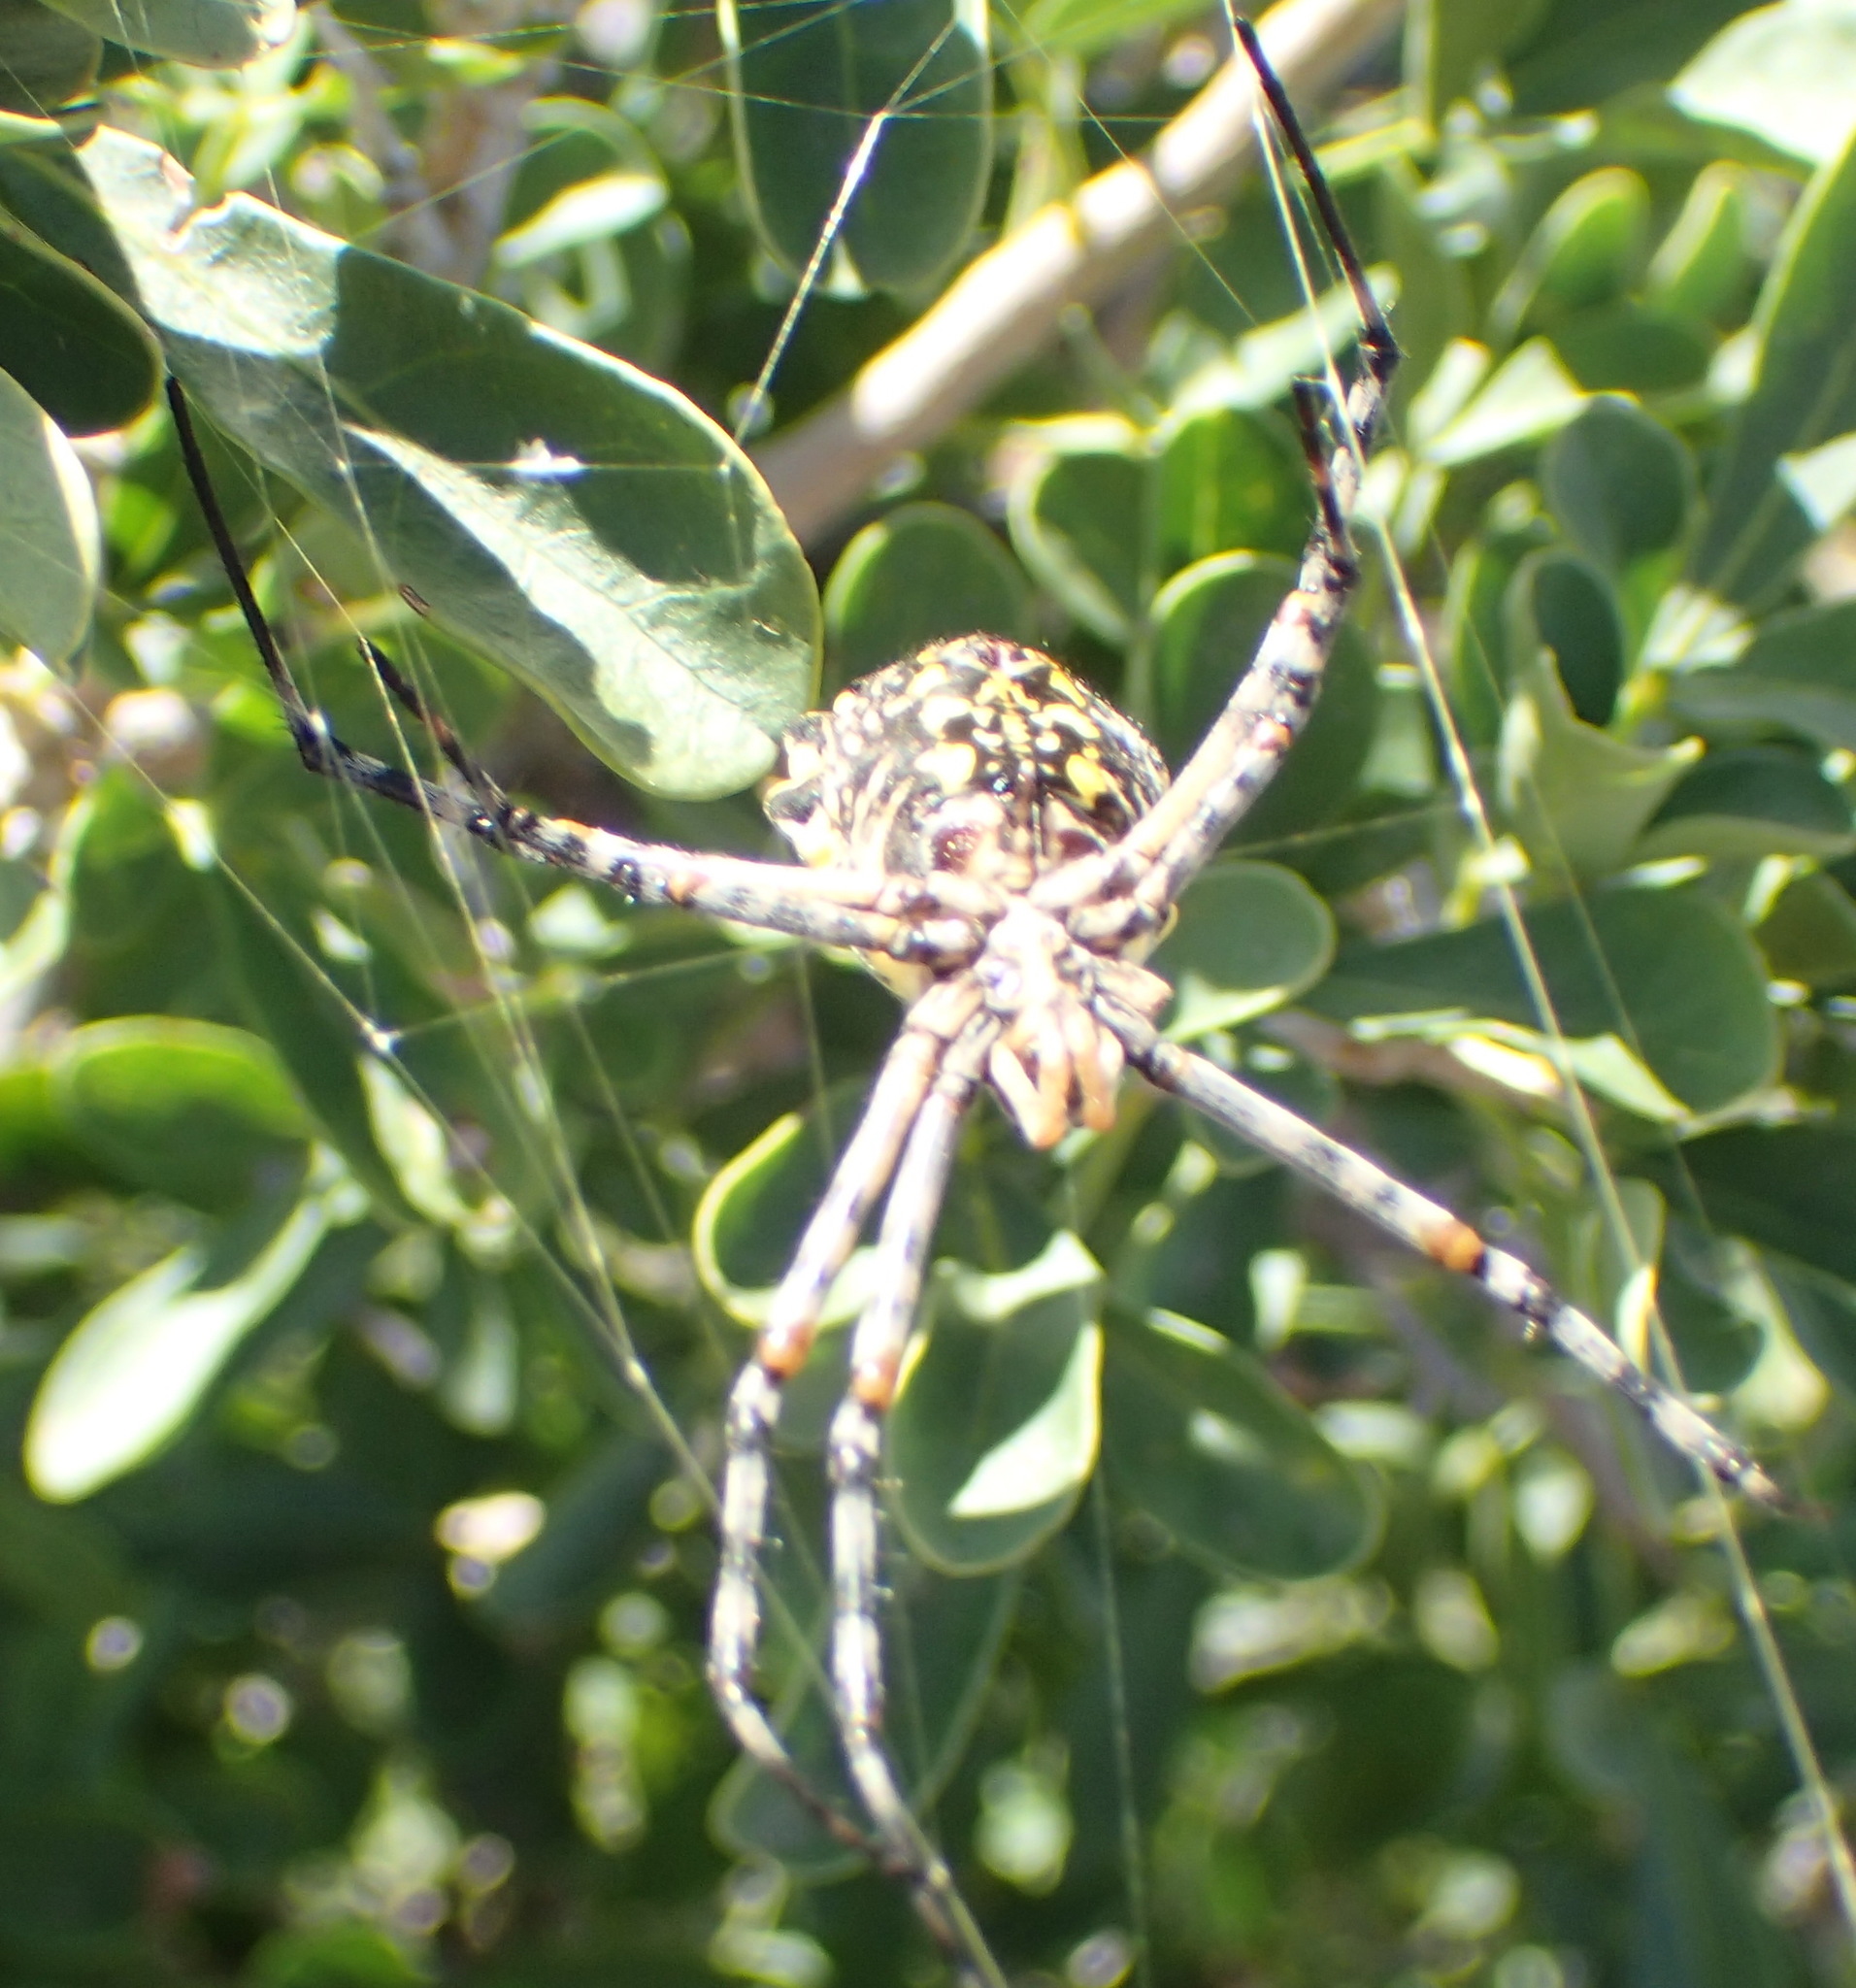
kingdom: Animalia
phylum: Arthropoda
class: Arachnida
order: Araneae
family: Araneidae
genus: Argiope
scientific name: Argiope australis
